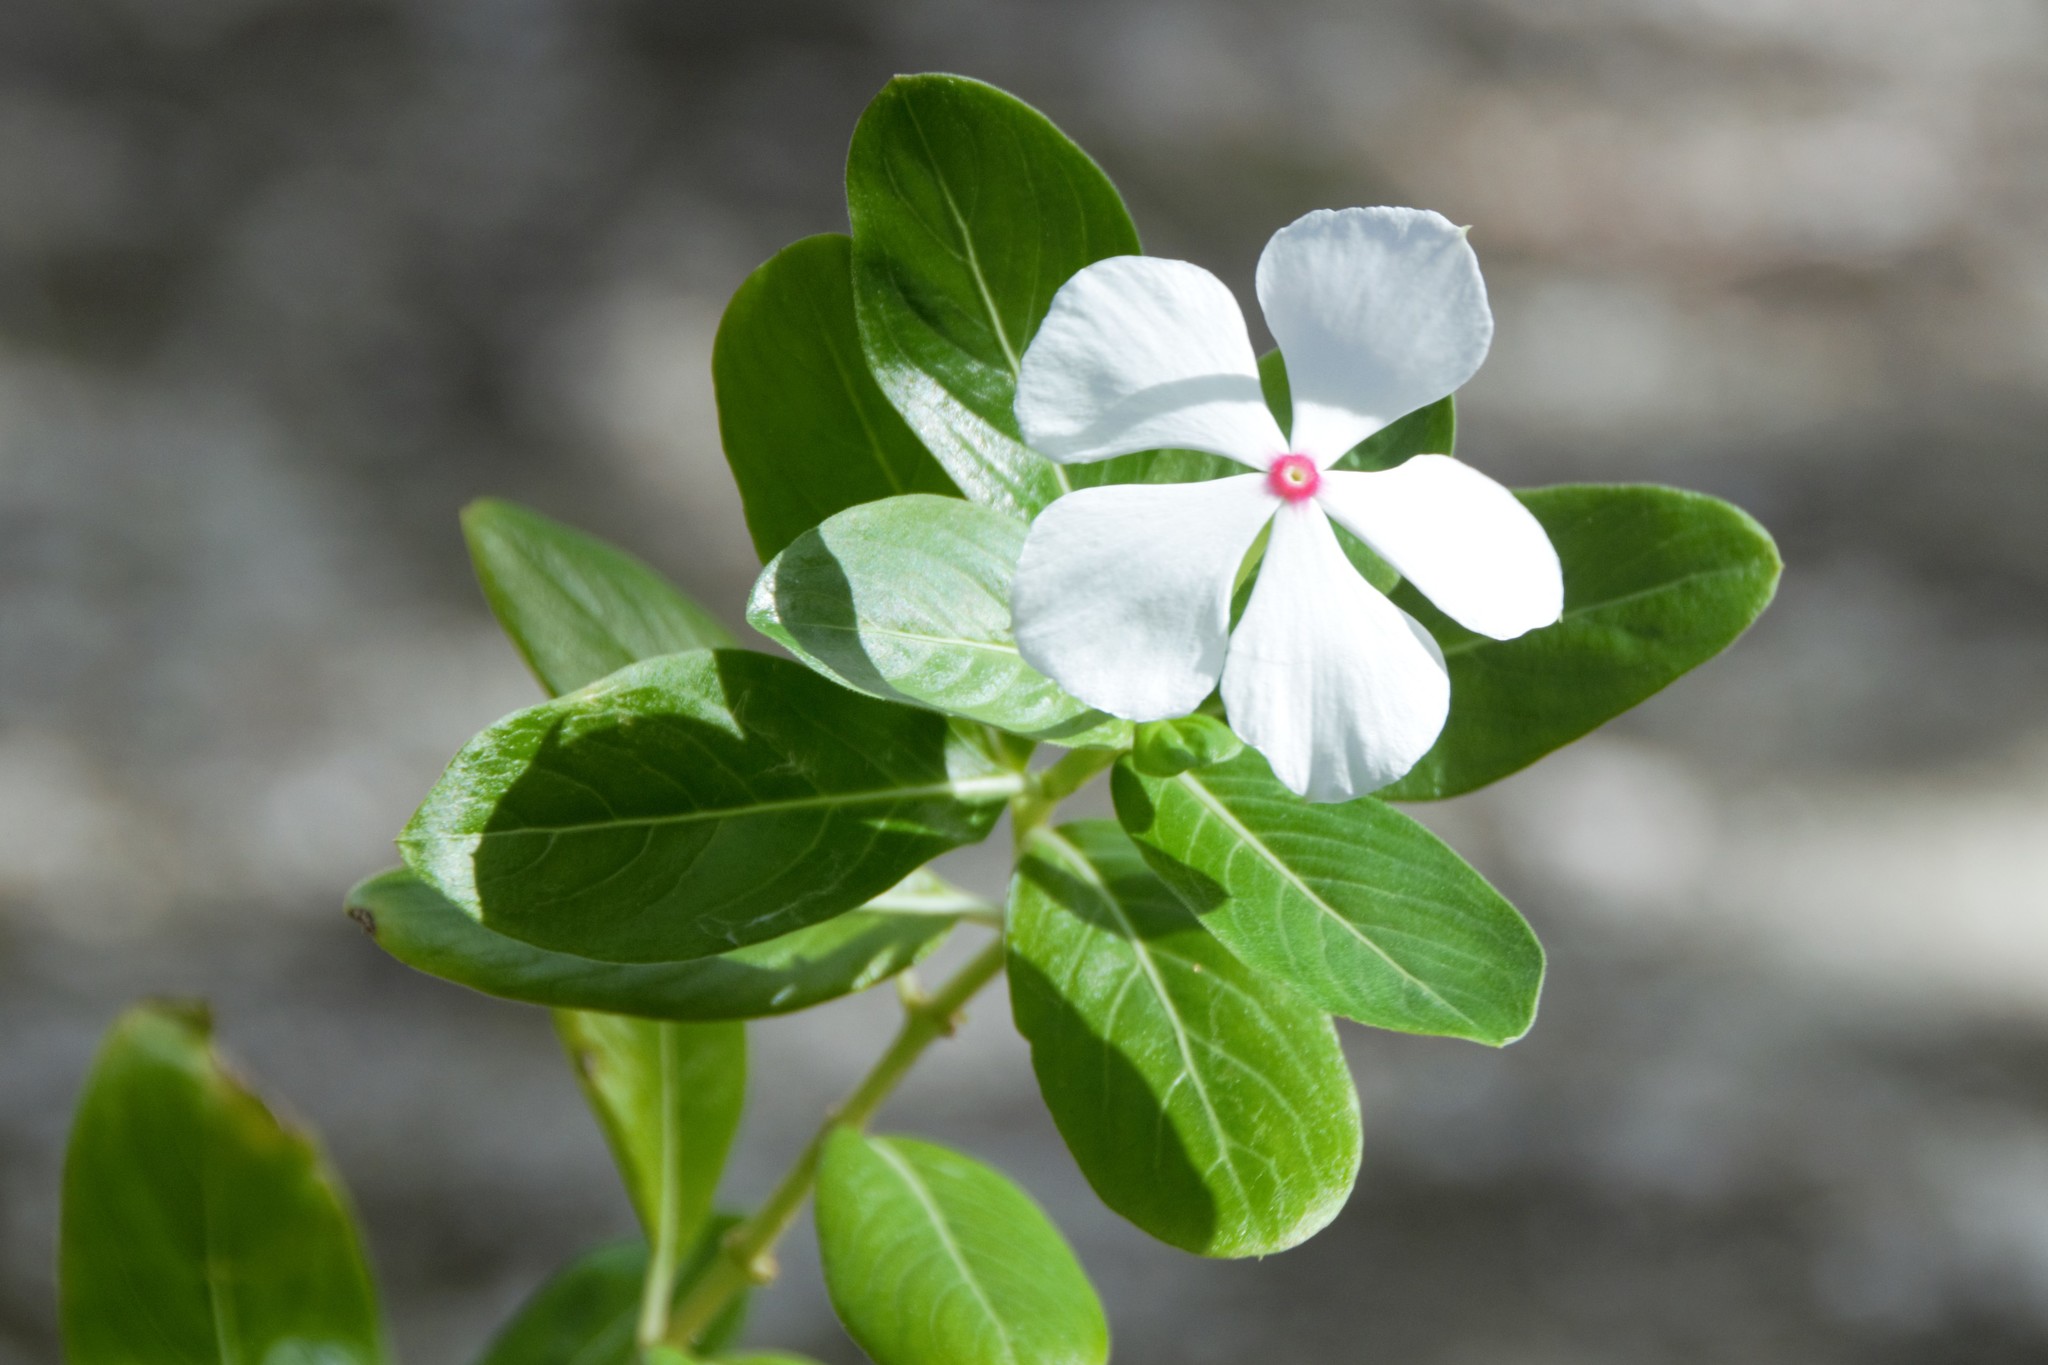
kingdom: Plantae
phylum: Tracheophyta
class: Magnoliopsida
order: Gentianales
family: Apocynaceae
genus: Catharanthus
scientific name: Catharanthus roseus
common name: Madagascar periwinkle
